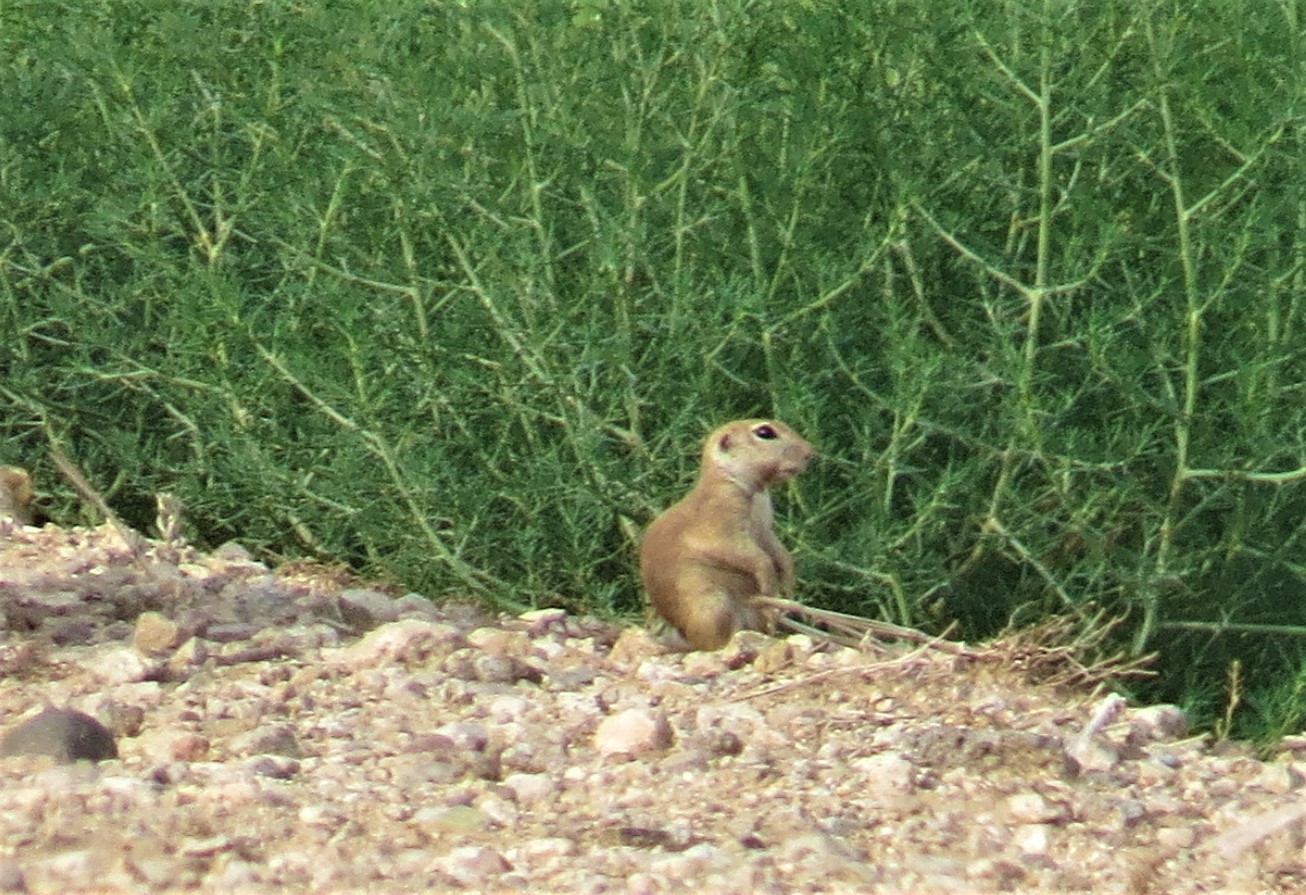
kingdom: Animalia
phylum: Chordata
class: Mammalia
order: Rodentia
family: Sciuridae
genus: Xerospermophilus
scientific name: Xerospermophilus tereticaudus
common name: Round-tailed ground squirrel
